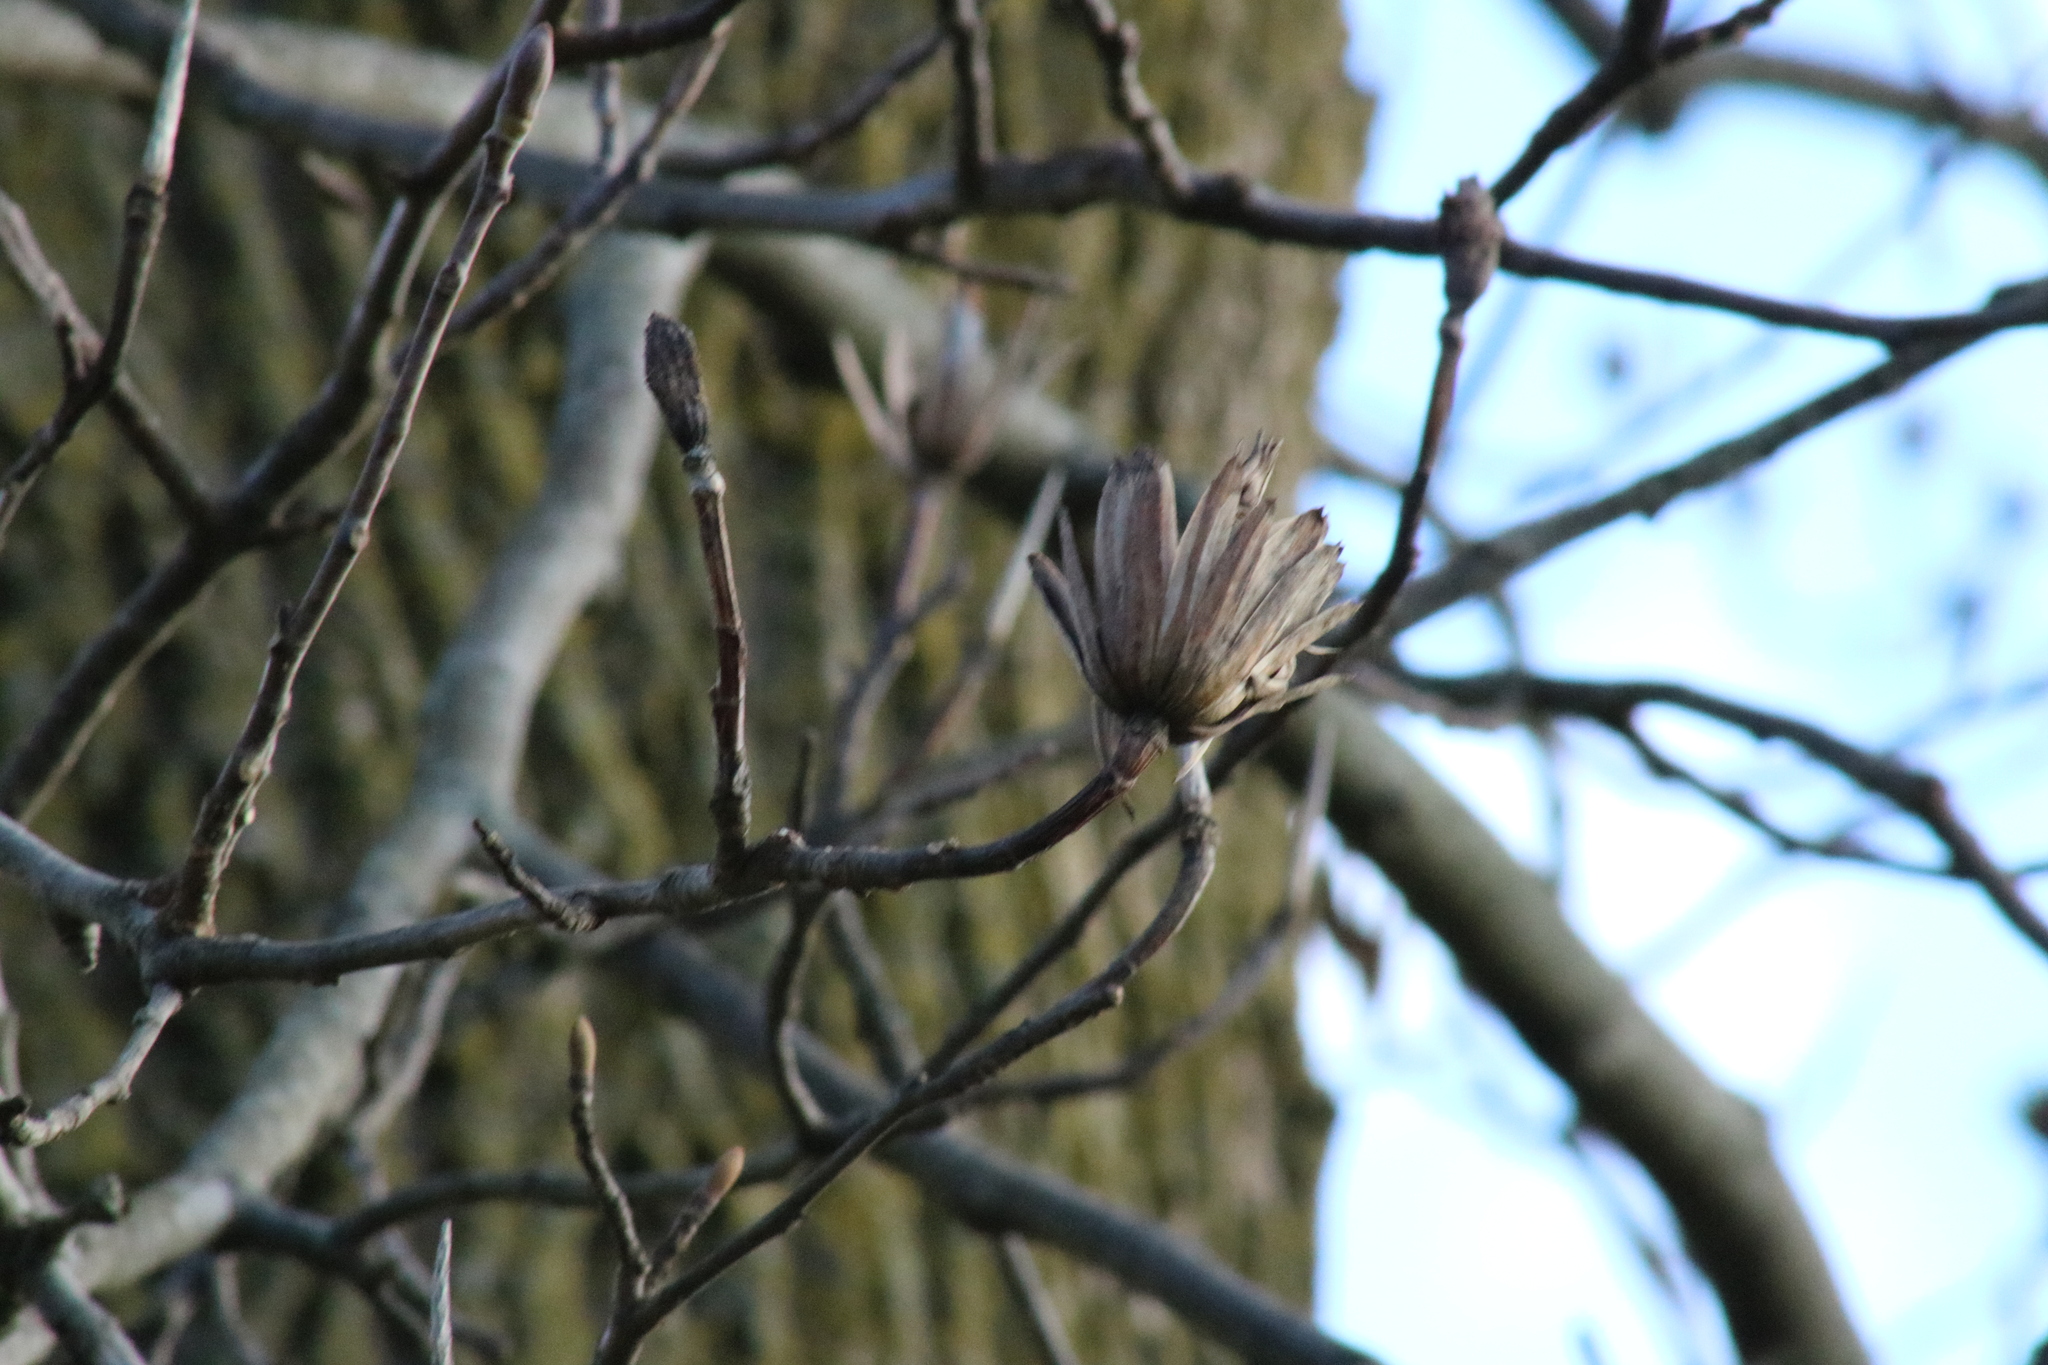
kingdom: Plantae
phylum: Tracheophyta
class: Magnoliopsida
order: Magnoliales
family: Magnoliaceae
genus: Liriodendron
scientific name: Liriodendron tulipifera
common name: Tulip tree
